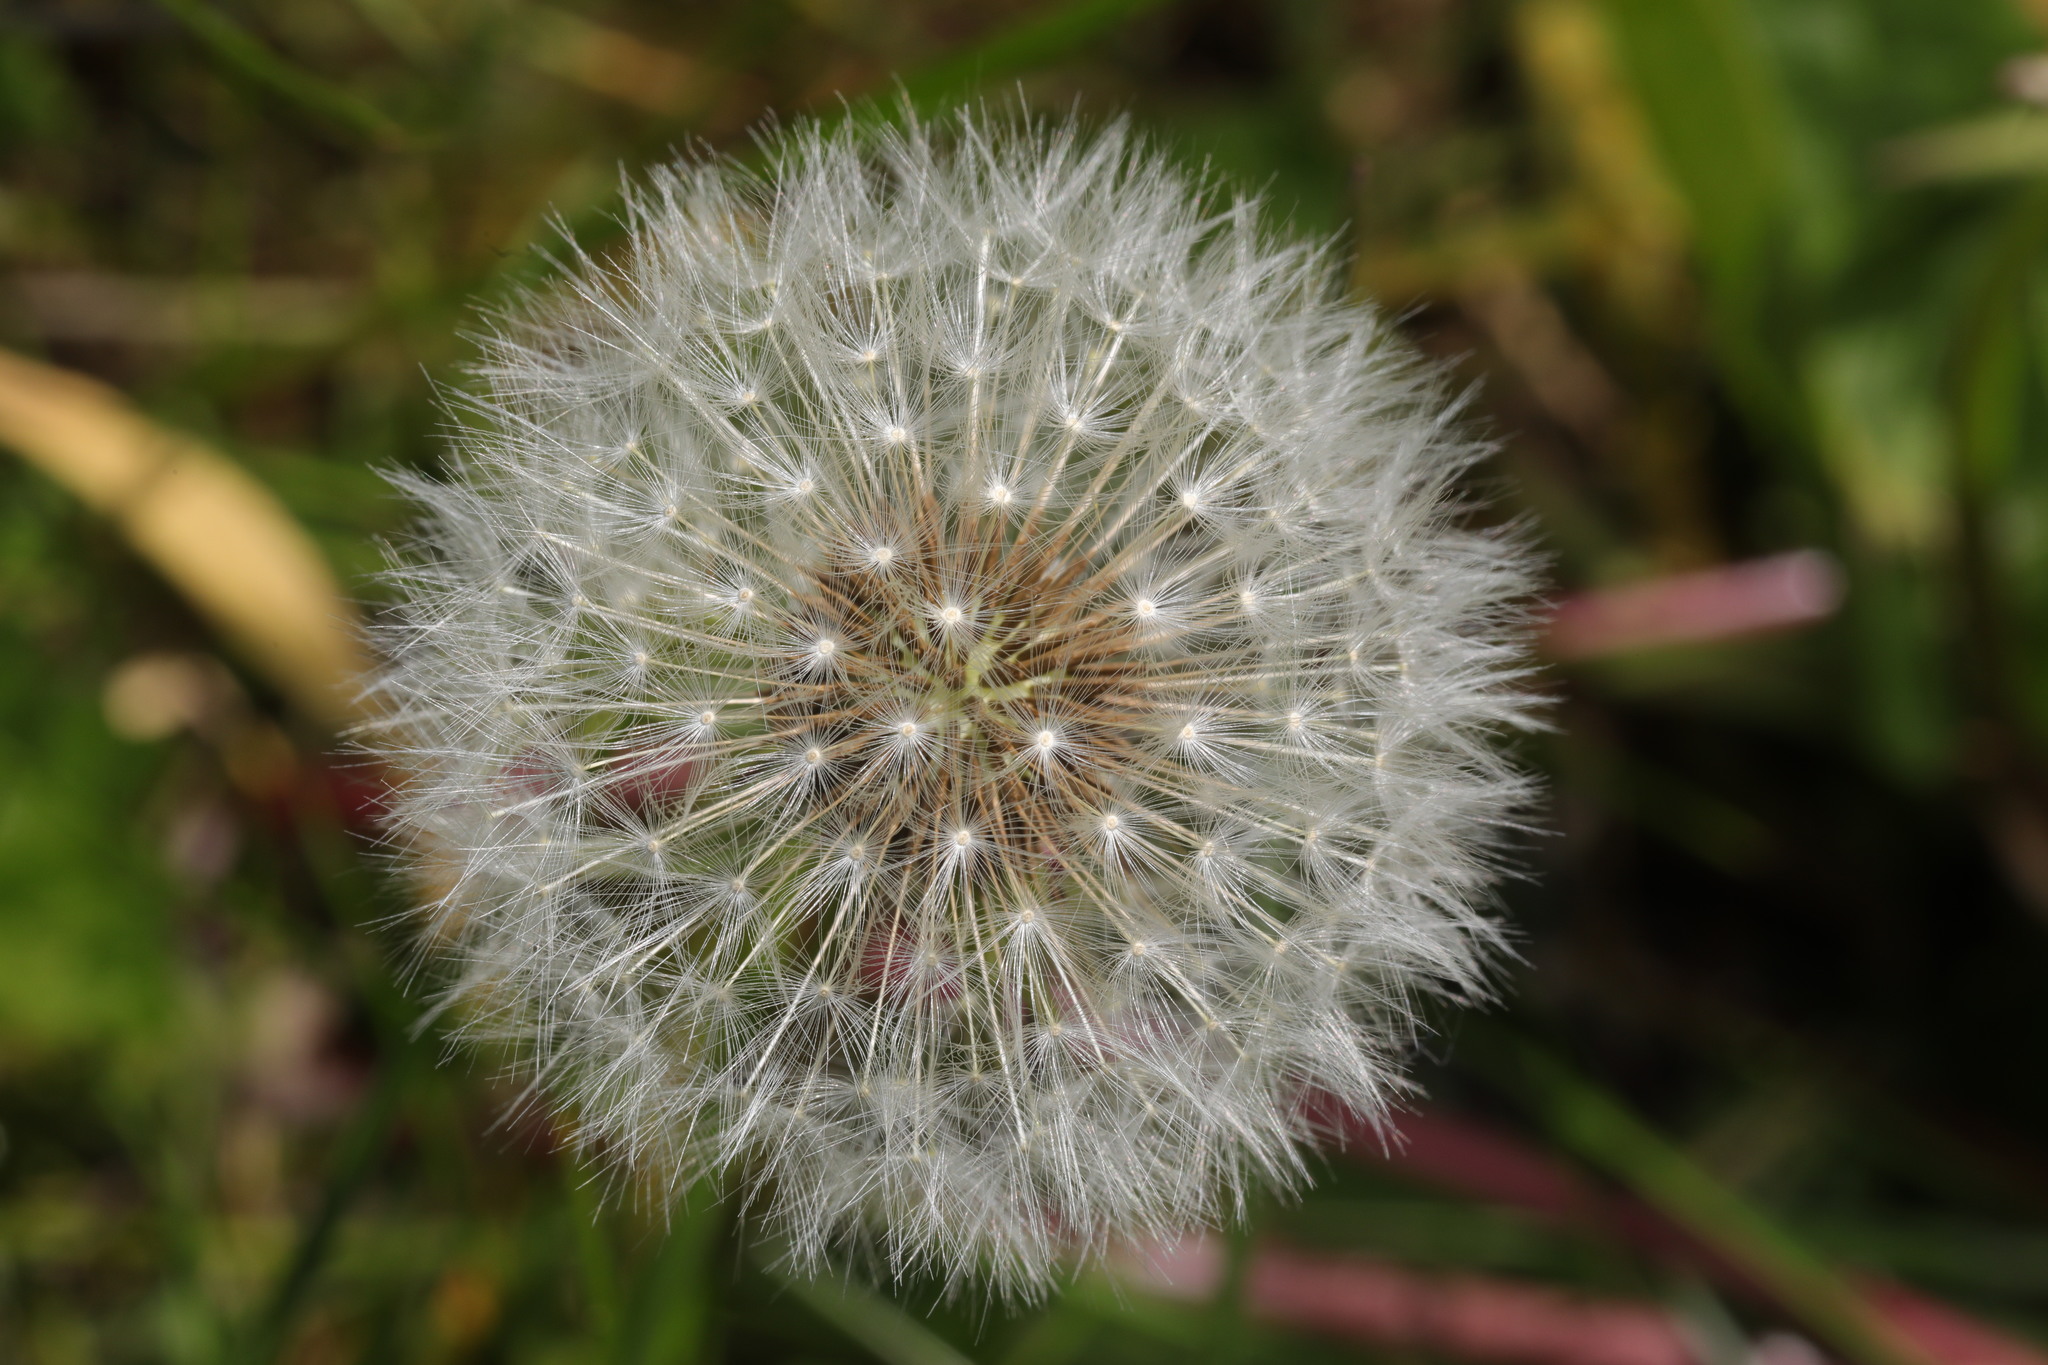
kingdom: Plantae
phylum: Tracheophyta
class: Magnoliopsida
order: Asterales
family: Asteraceae
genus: Taraxacum
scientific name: Taraxacum officinale
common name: Common dandelion
